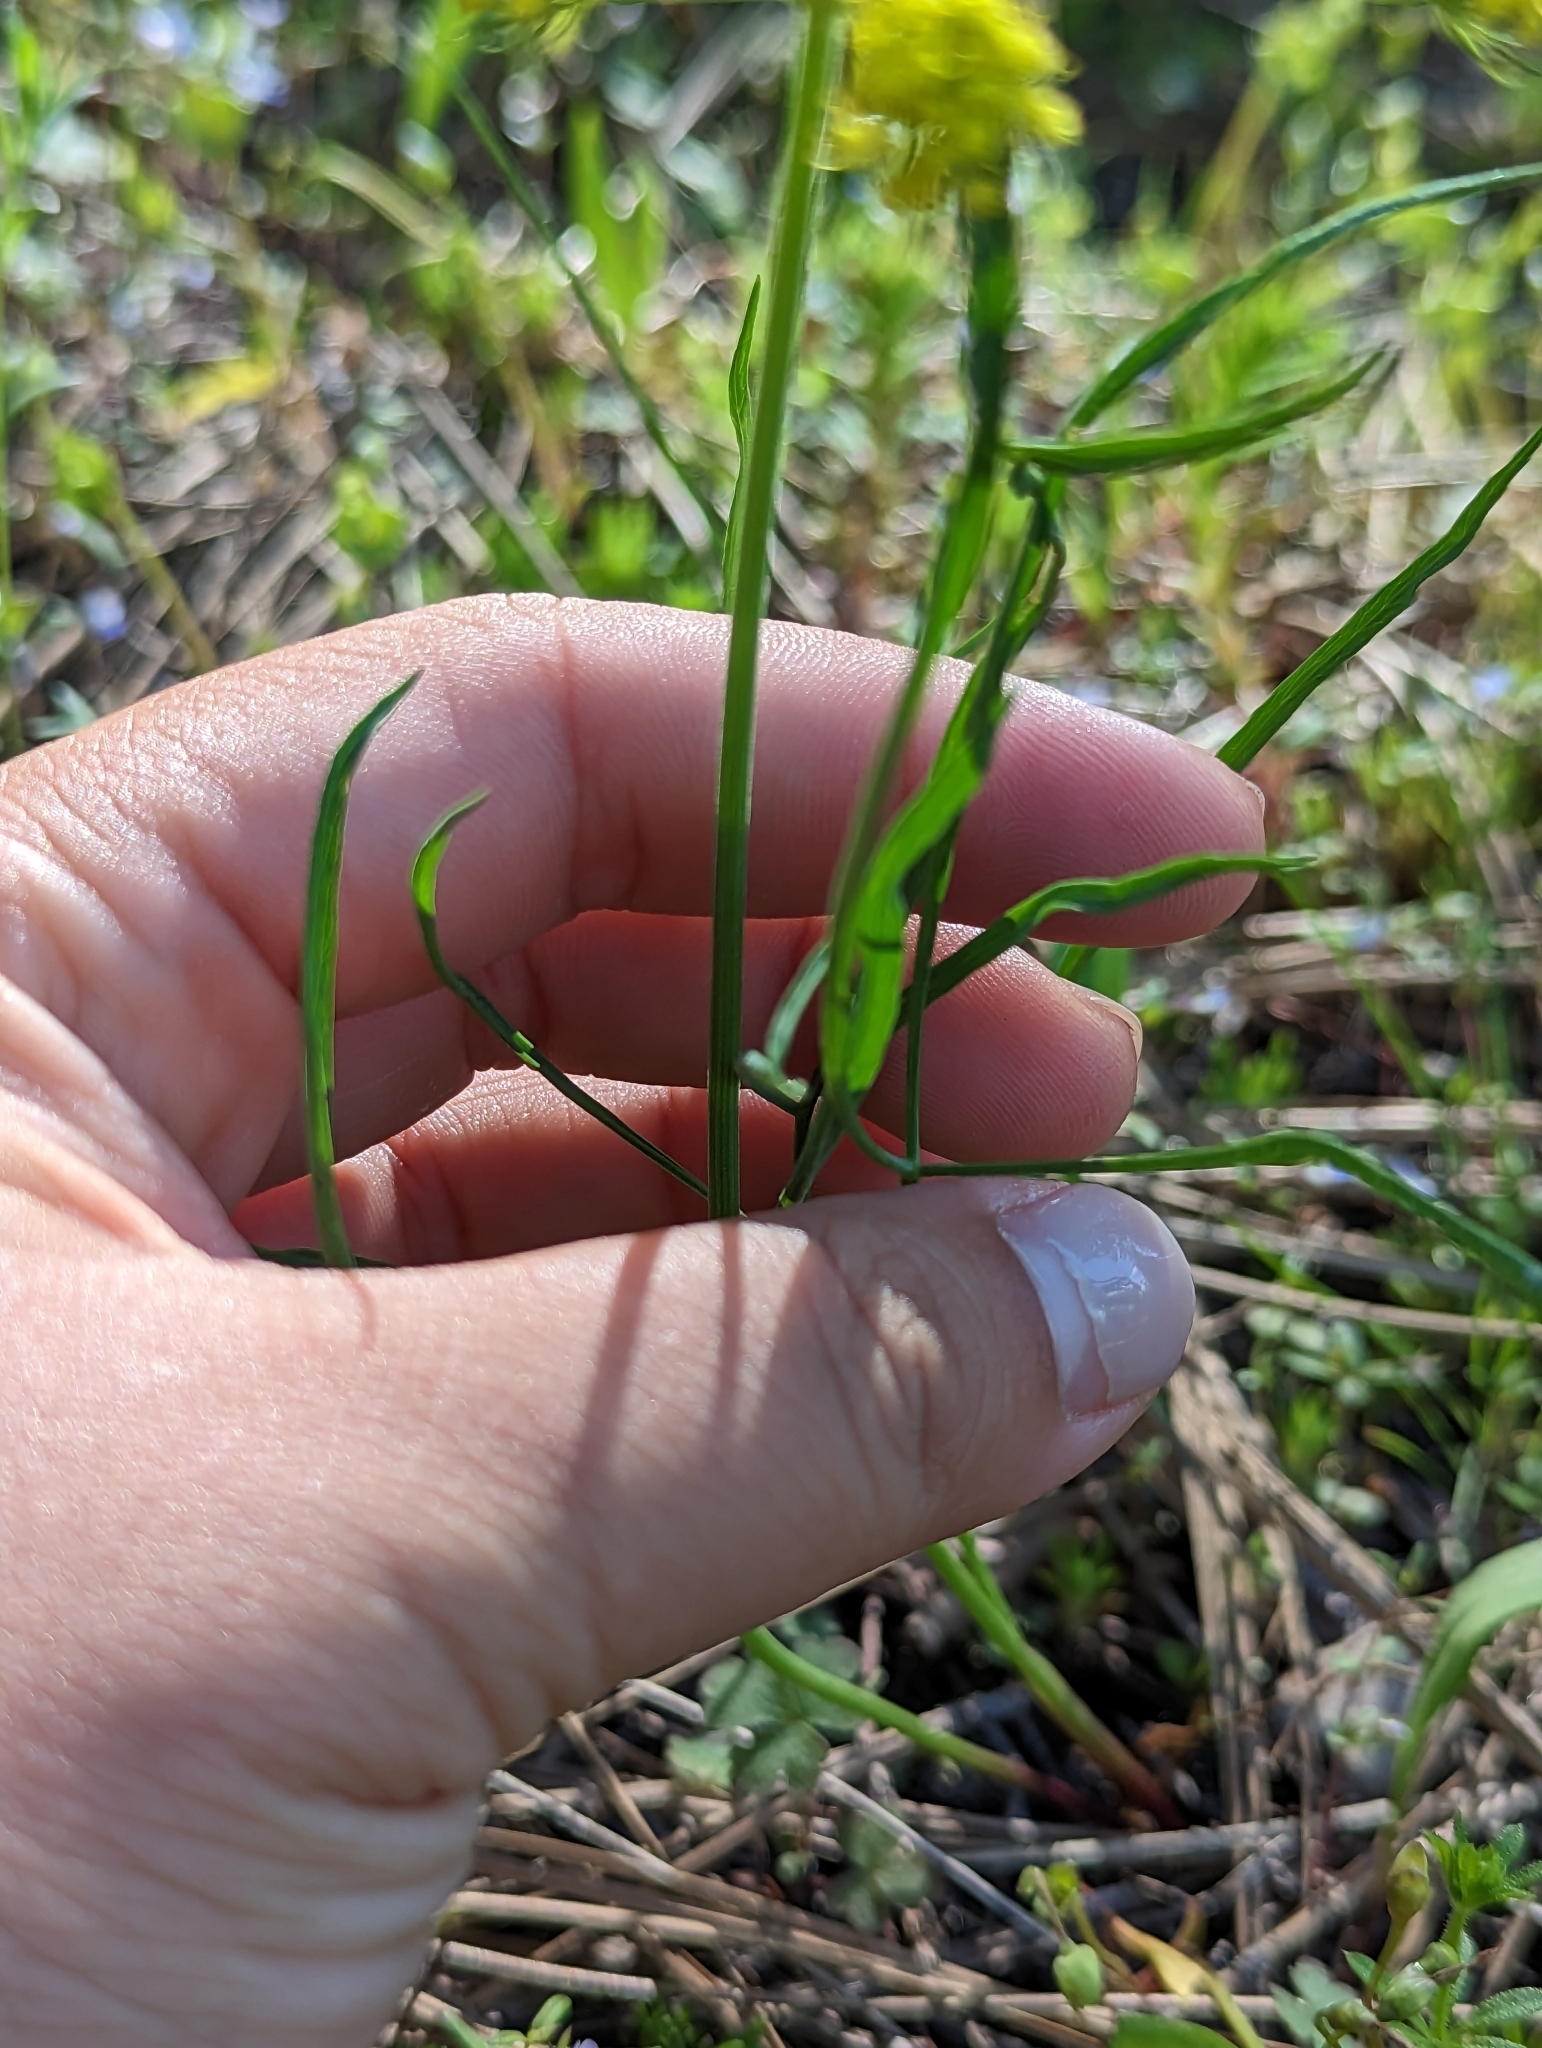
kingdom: Plantae
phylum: Tracheophyta
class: Magnoliopsida
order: Apiales
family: Apiaceae
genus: Lomatium
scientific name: Lomatium triternatum
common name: Ternate lomatium
